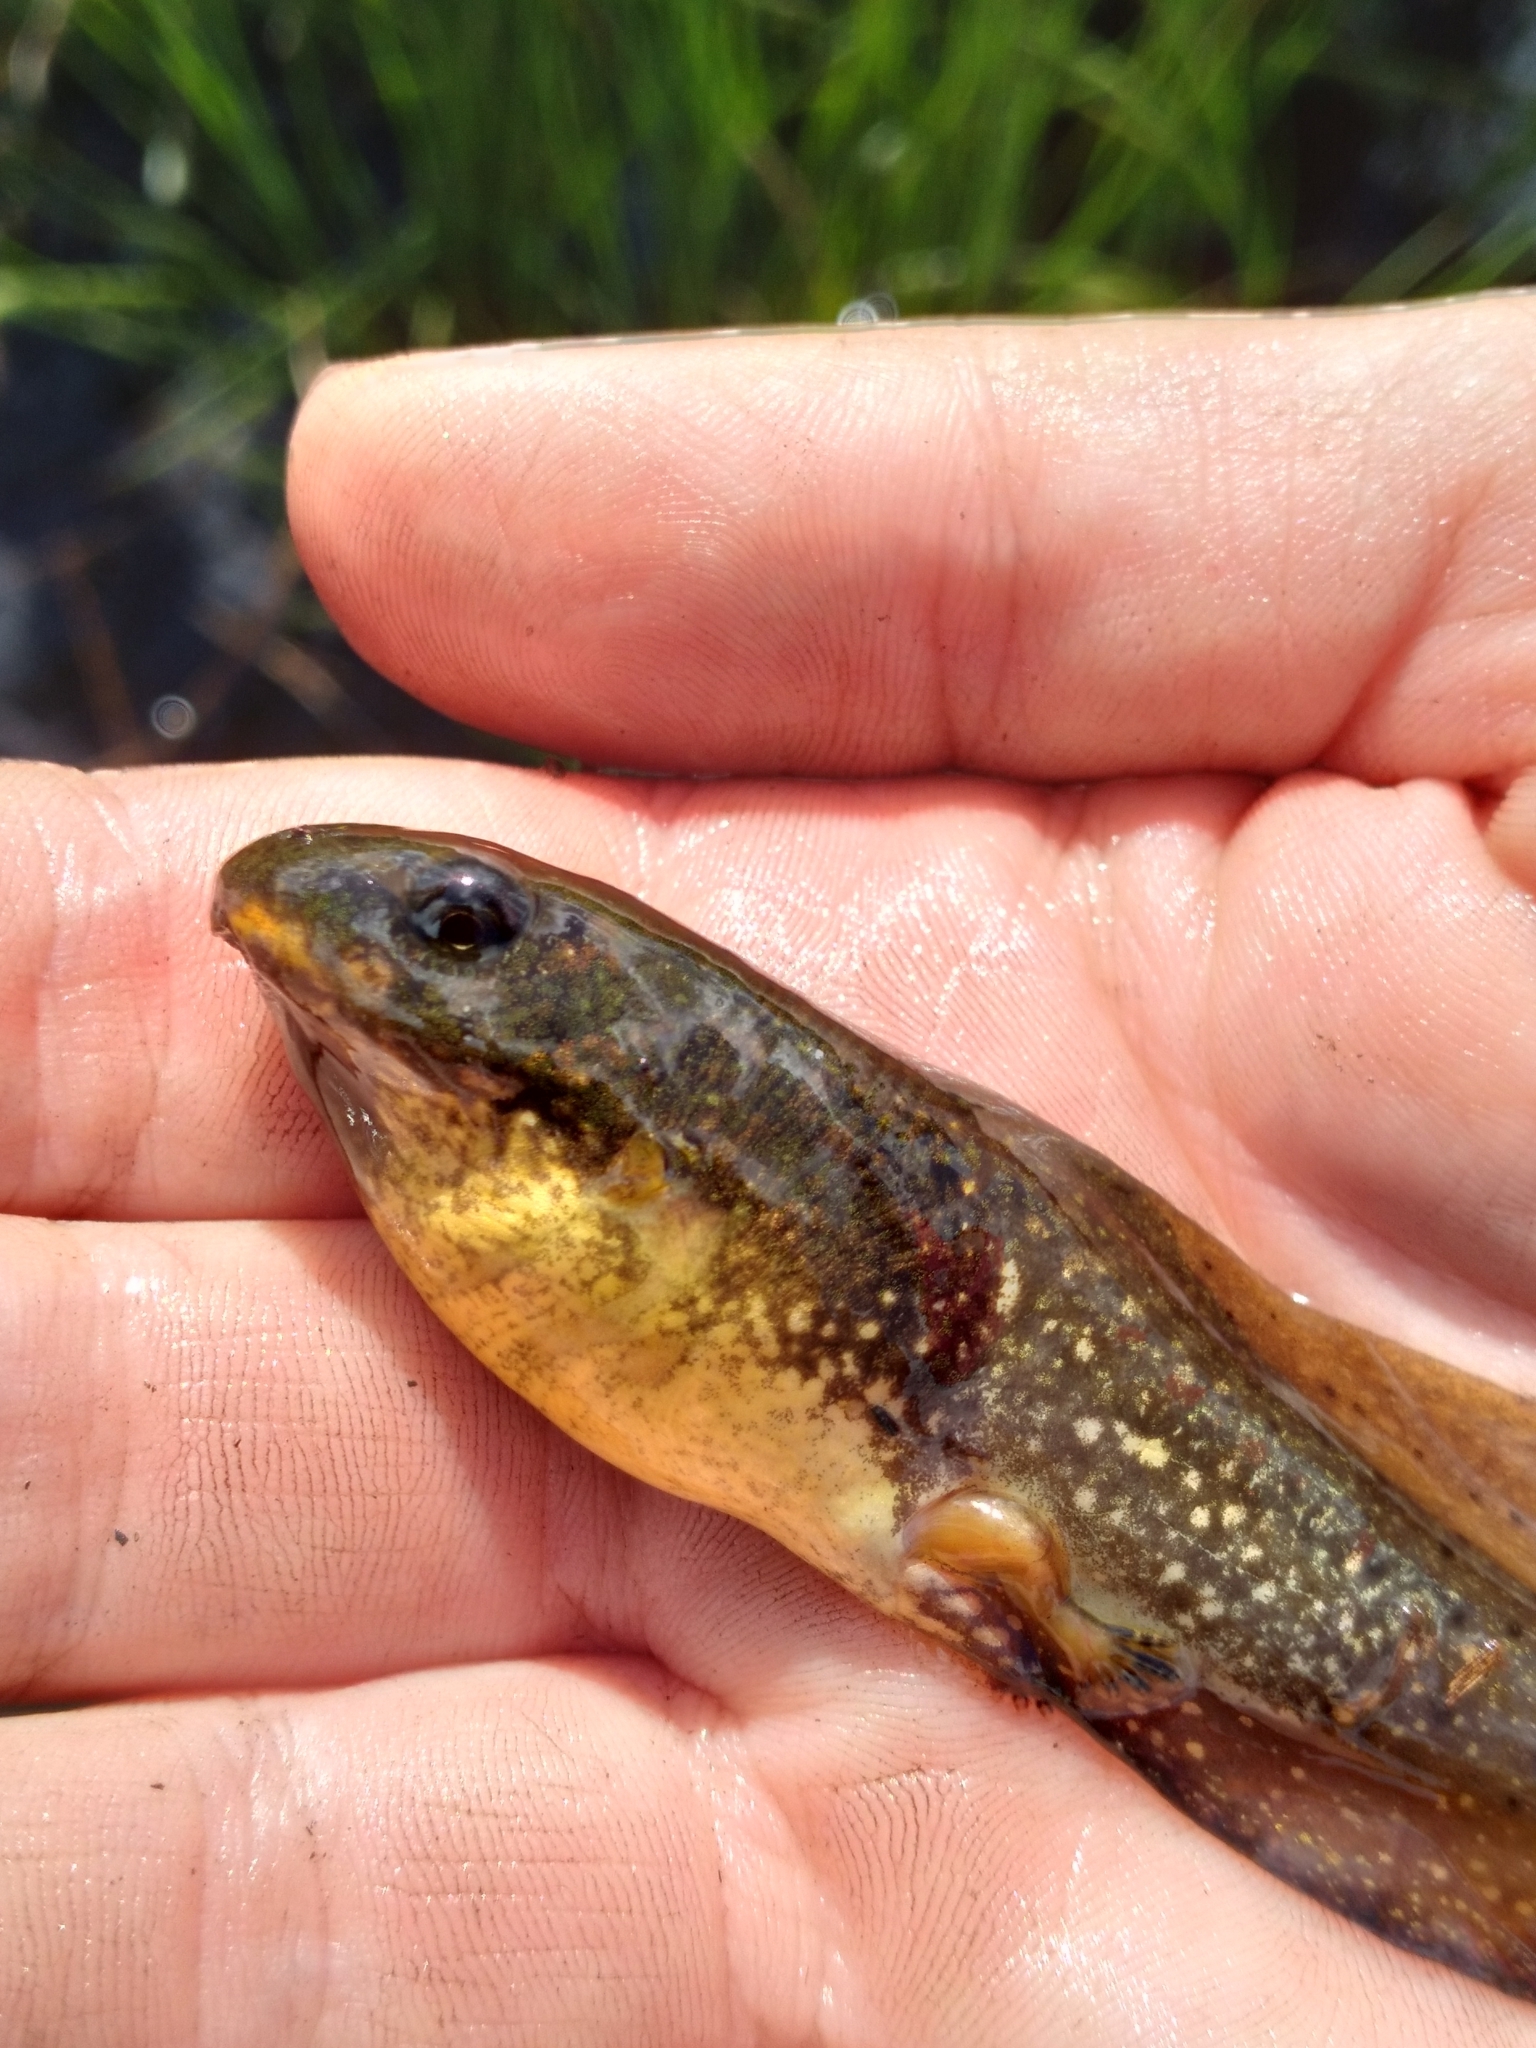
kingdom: Animalia
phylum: Chordata
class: Amphibia
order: Anura
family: Ranidae
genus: Lithobates
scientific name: Lithobates grylio
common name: Pig frog
